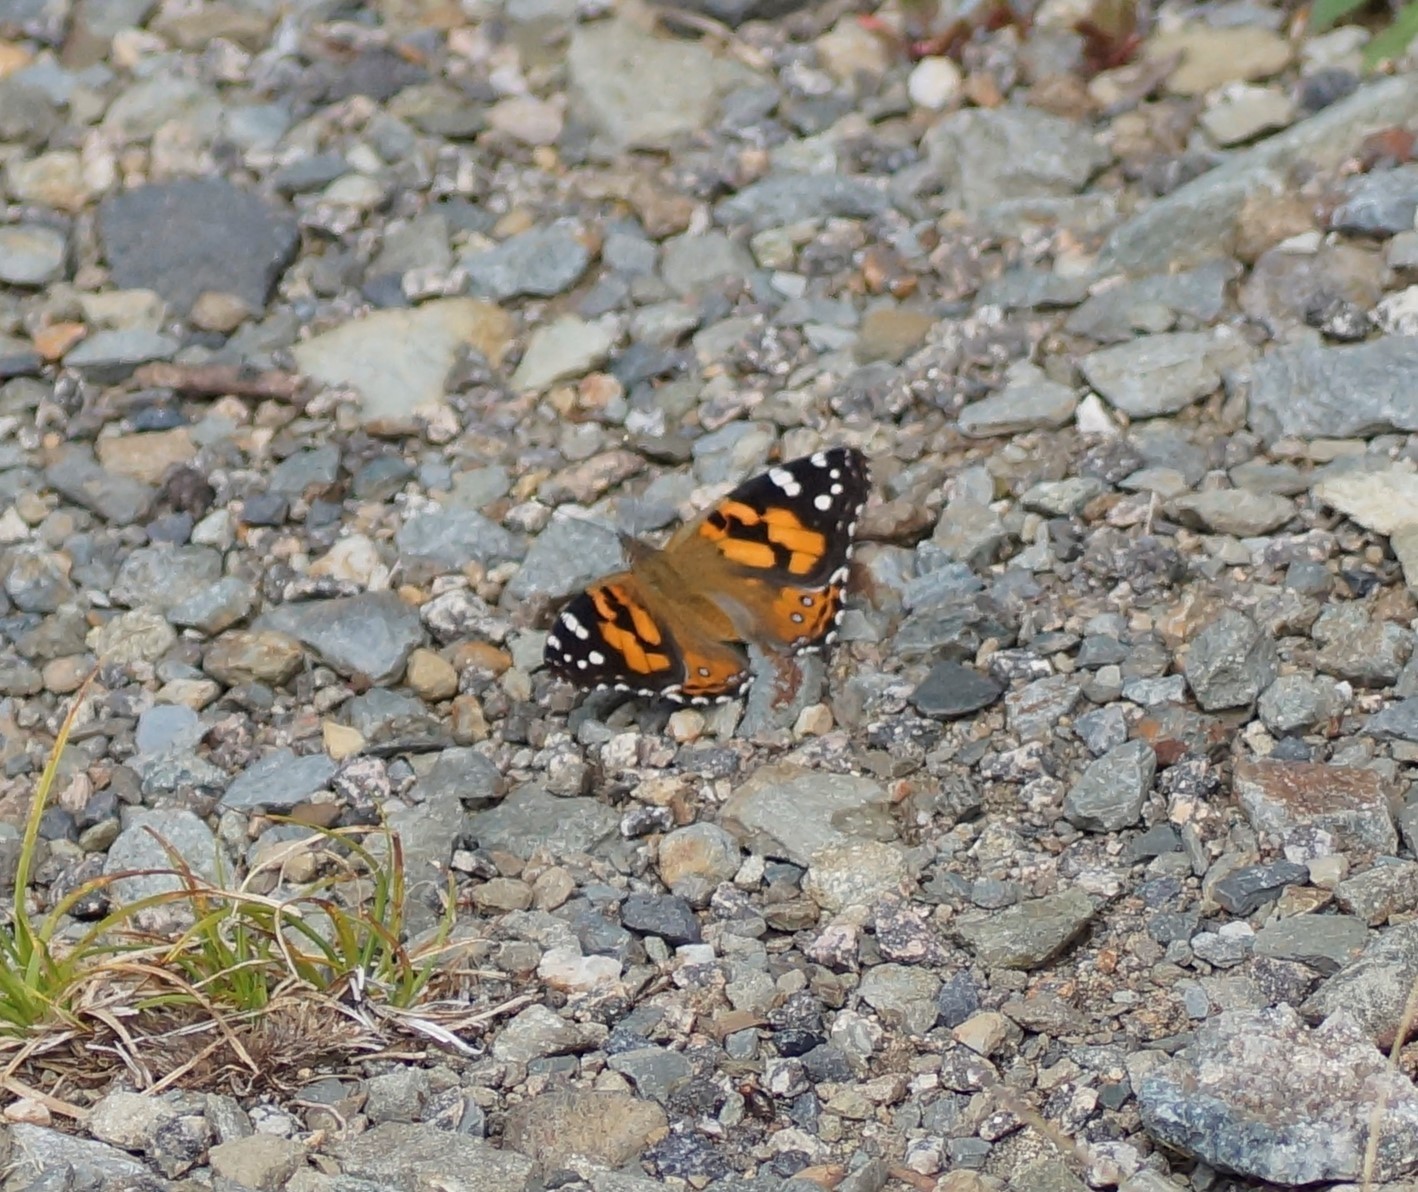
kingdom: Animalia
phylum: Arthropoda
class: Insecta
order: Lepidoptera
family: Nymphalidae
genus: Vanessa
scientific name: Vanessa kershawi
